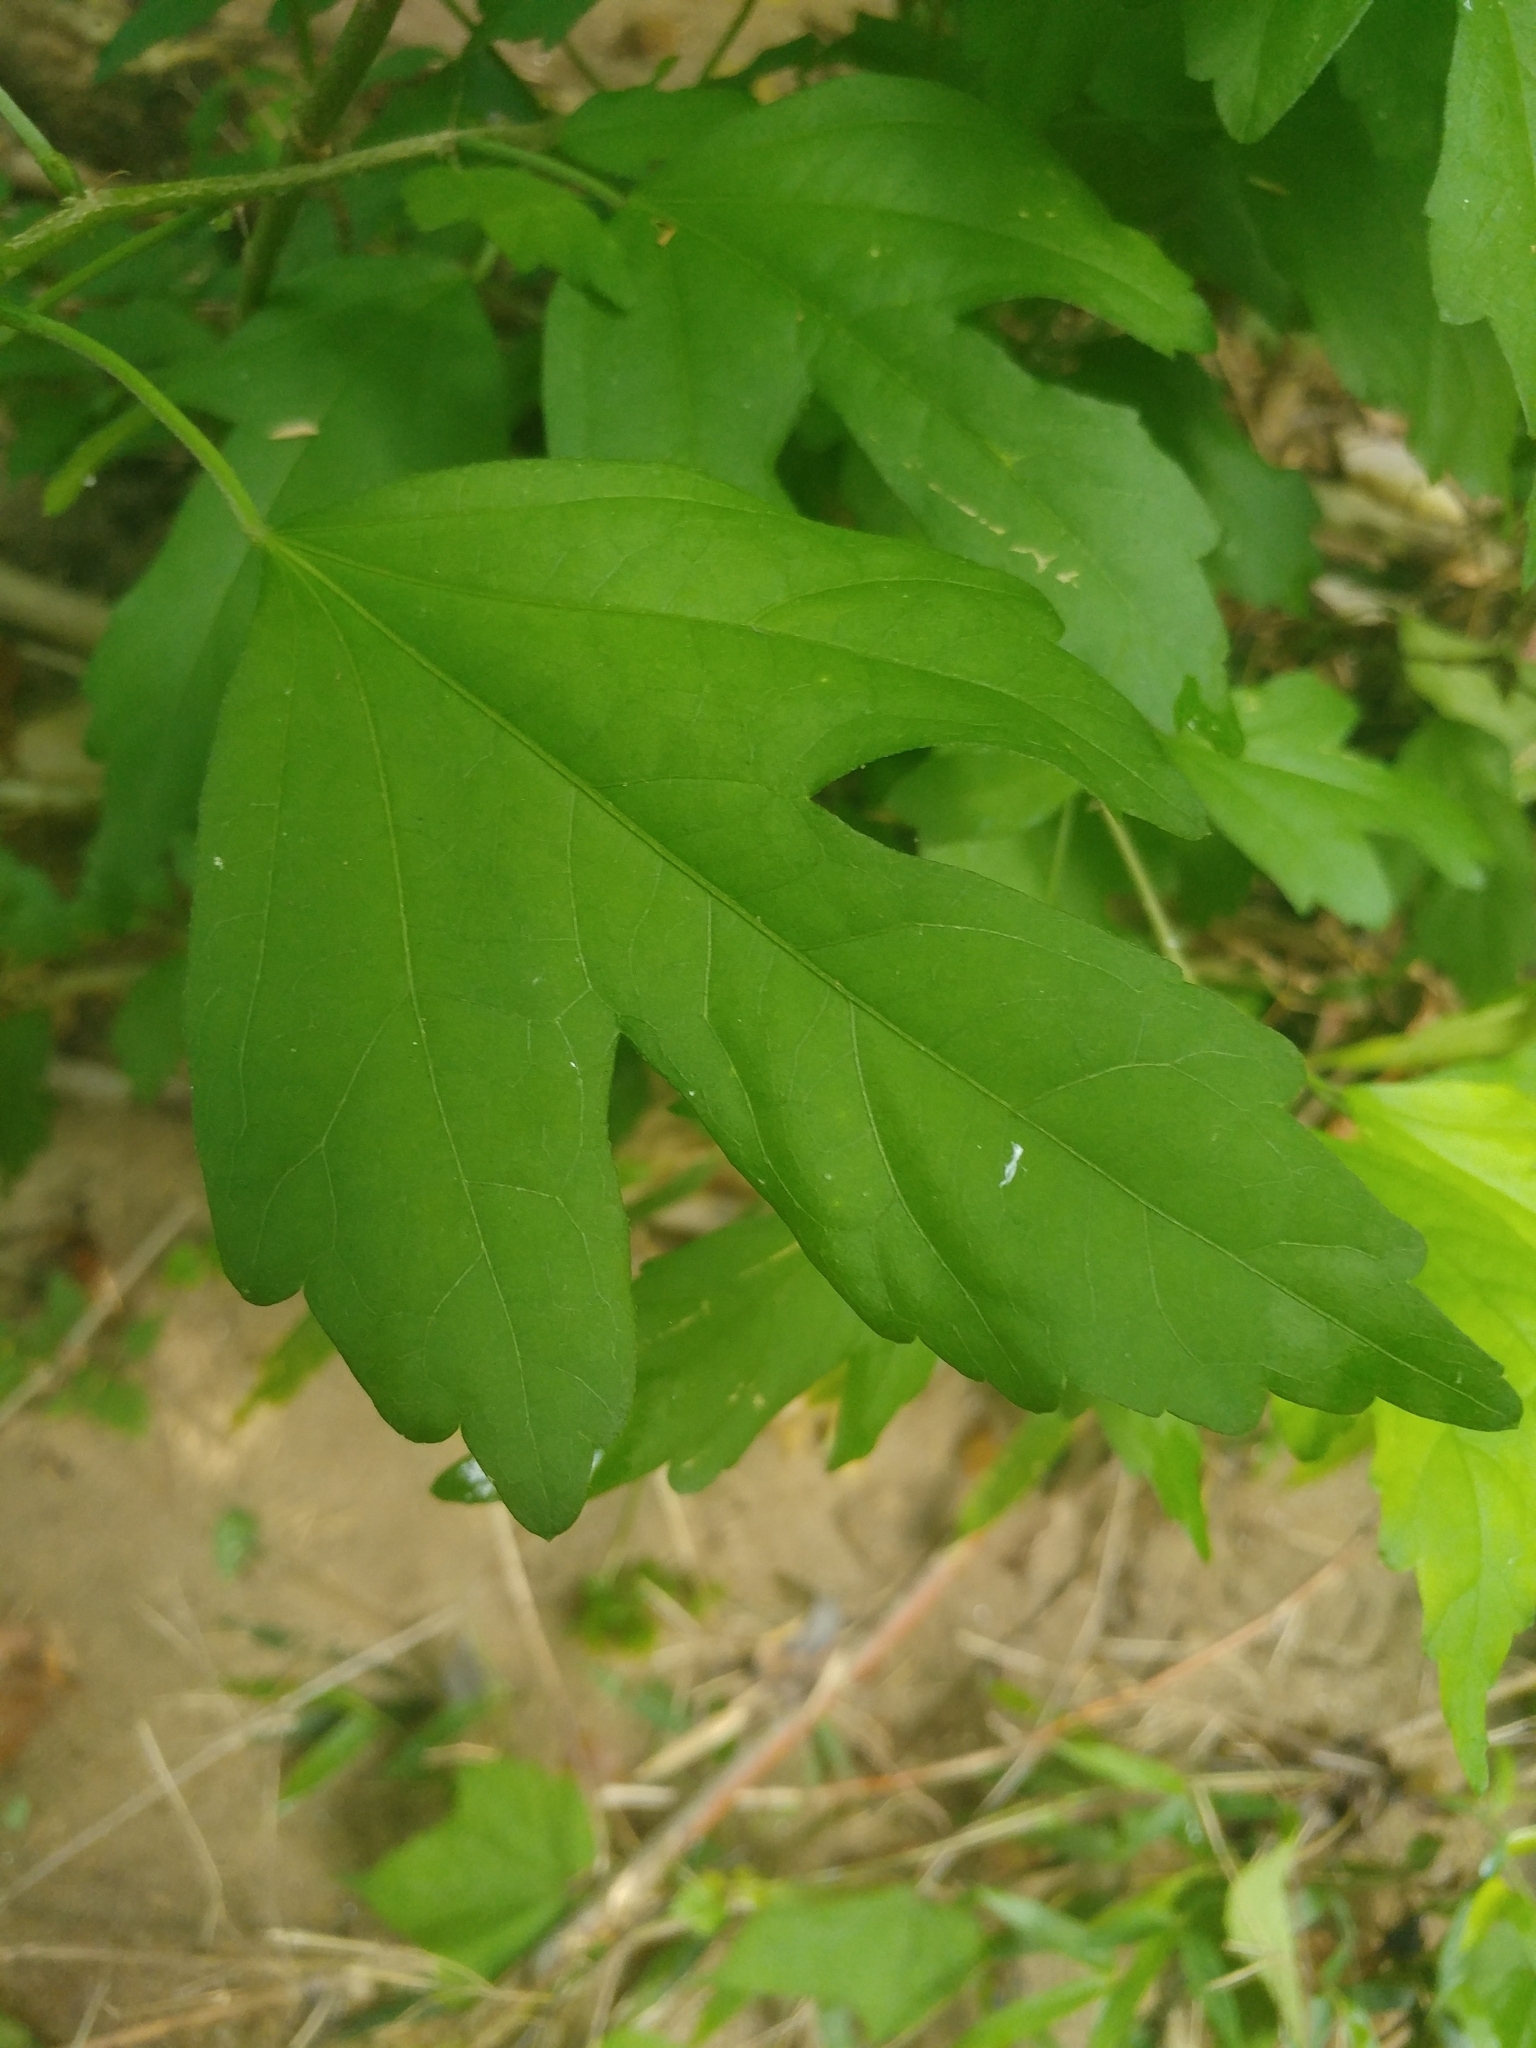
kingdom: Plantae
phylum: Tracheophyta
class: Magnoliopsida
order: Malvales
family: Malvaceae
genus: Hibiscus
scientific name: Hibiscus syriacus
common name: Syrian ketmia
